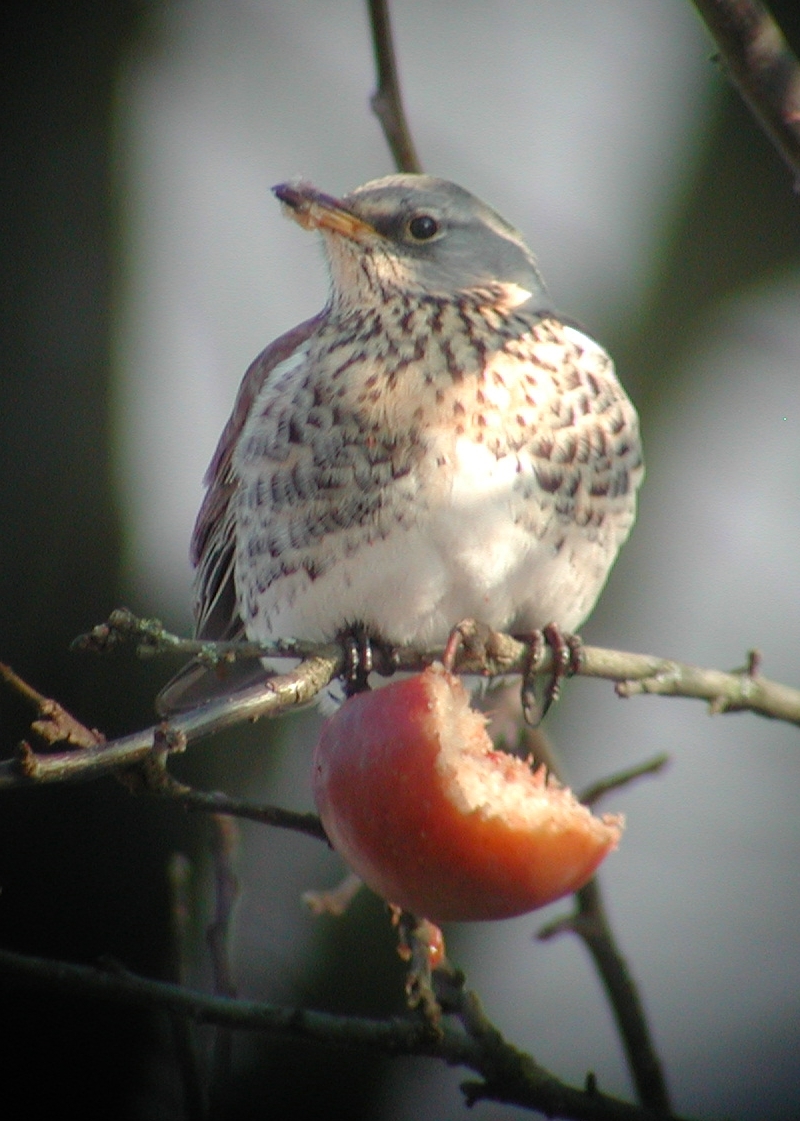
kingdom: Animalia
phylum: Chordata
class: Aves
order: Passeriformes
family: Turdidae
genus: Turdus
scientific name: Turdus pilaris
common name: Fieldfare
